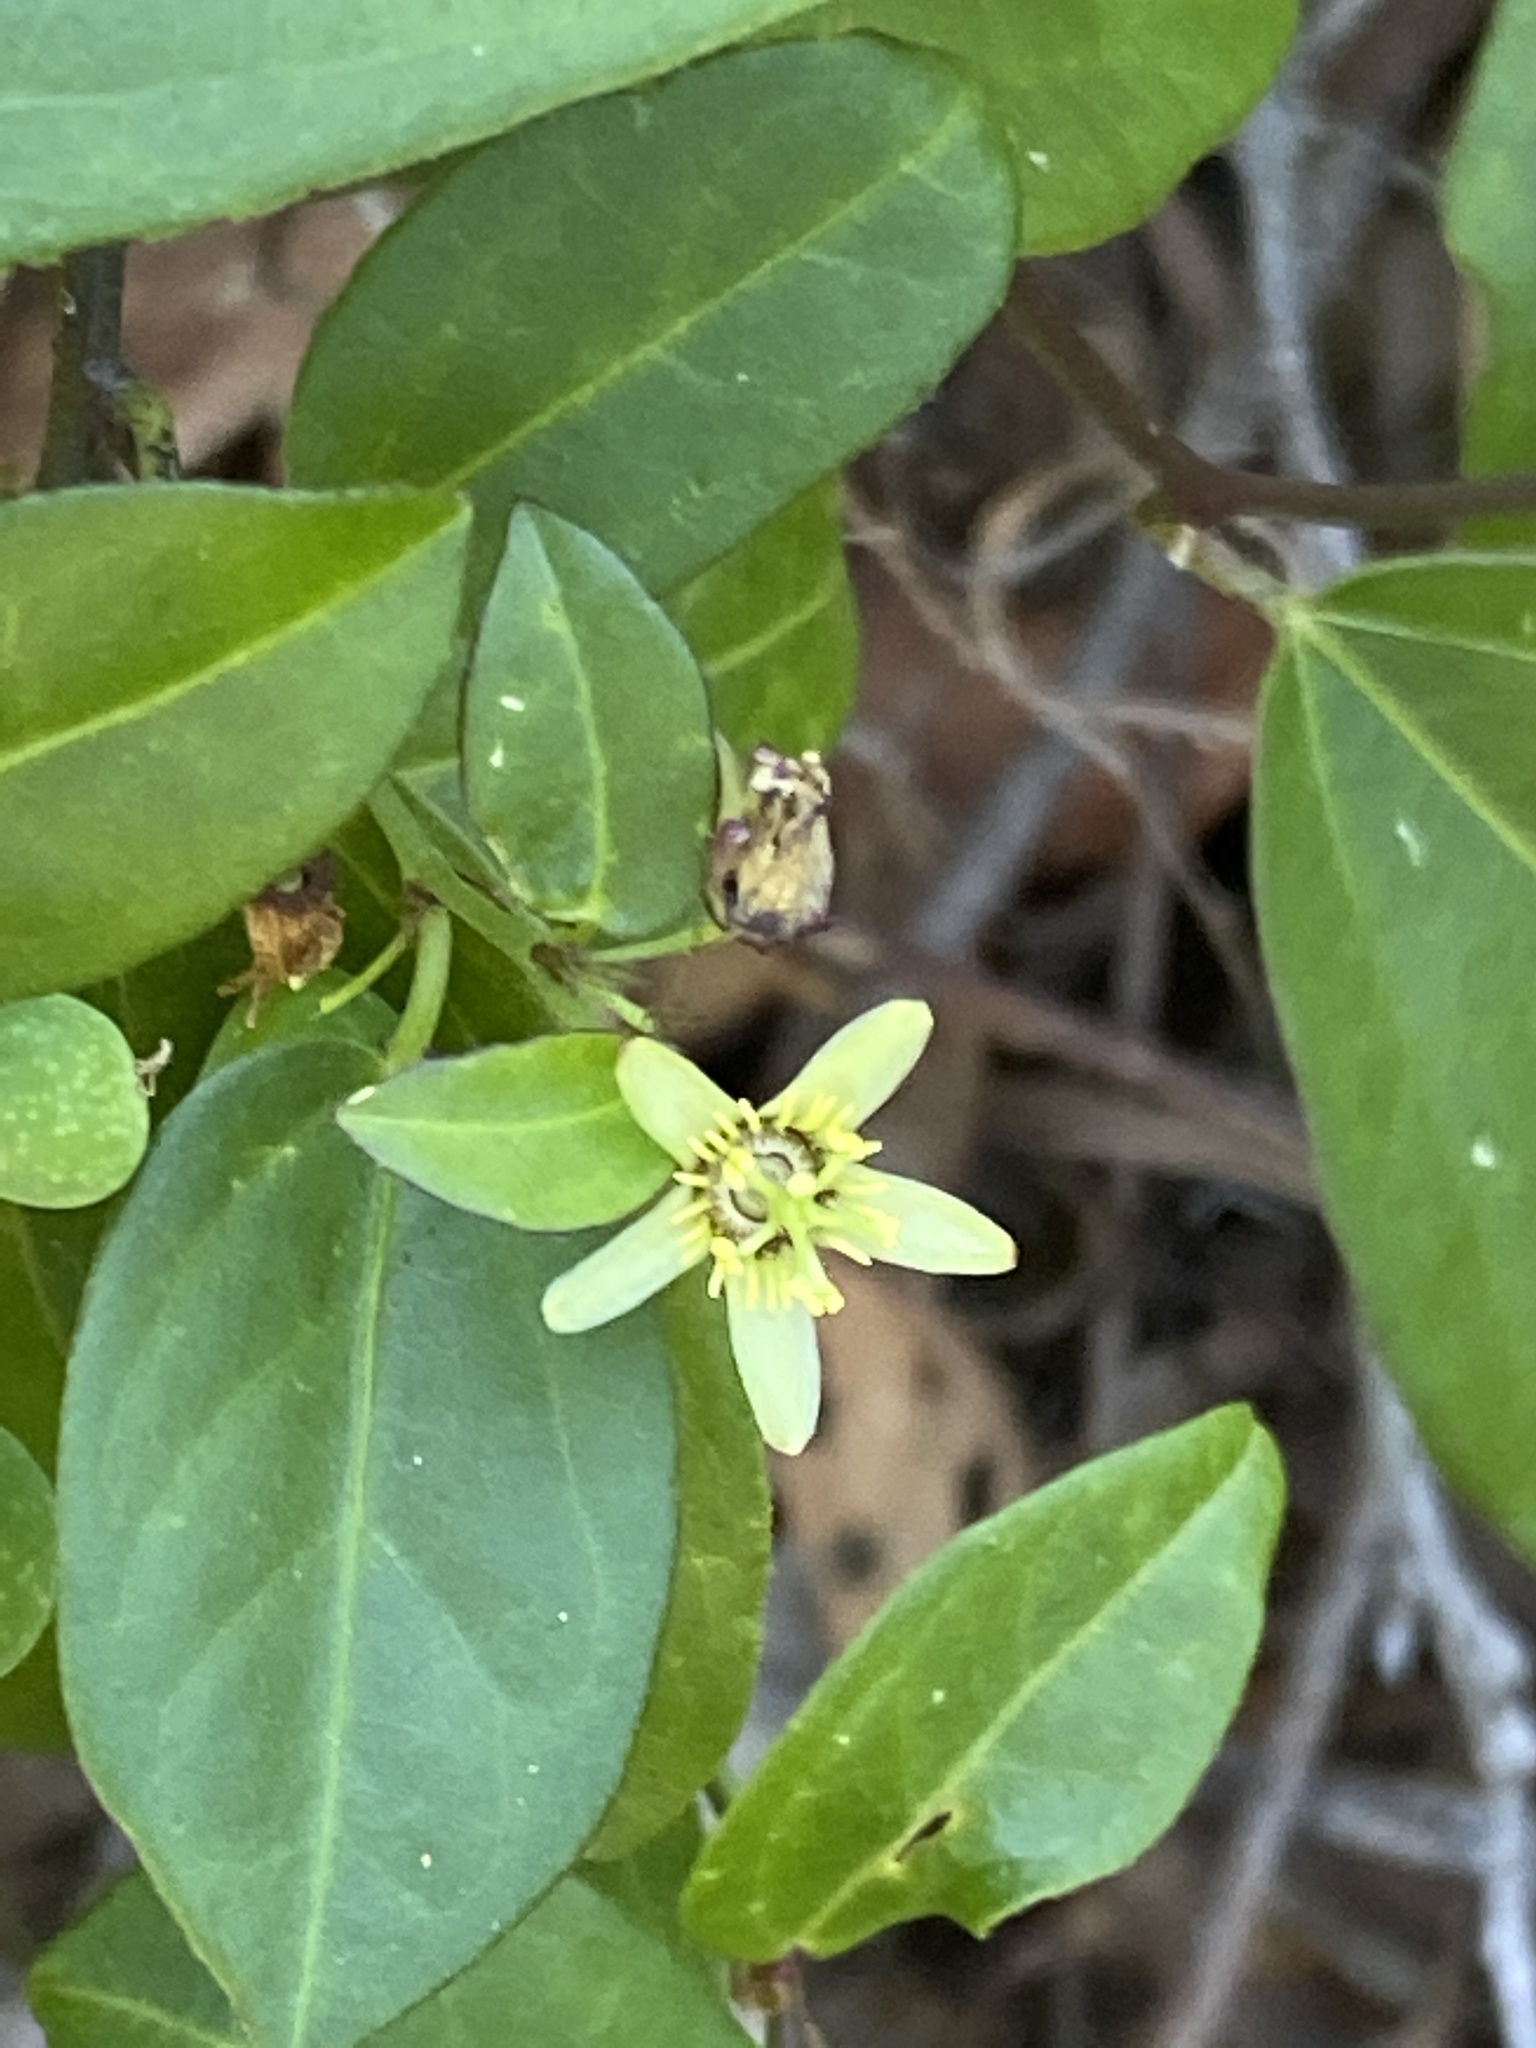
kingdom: Plantae
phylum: Tracheophyta
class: Magnoliopsida
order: Malpighiales
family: Passifloraceae
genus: Passiflora
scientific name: Passiflora suberosa
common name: Wild passionfruit
